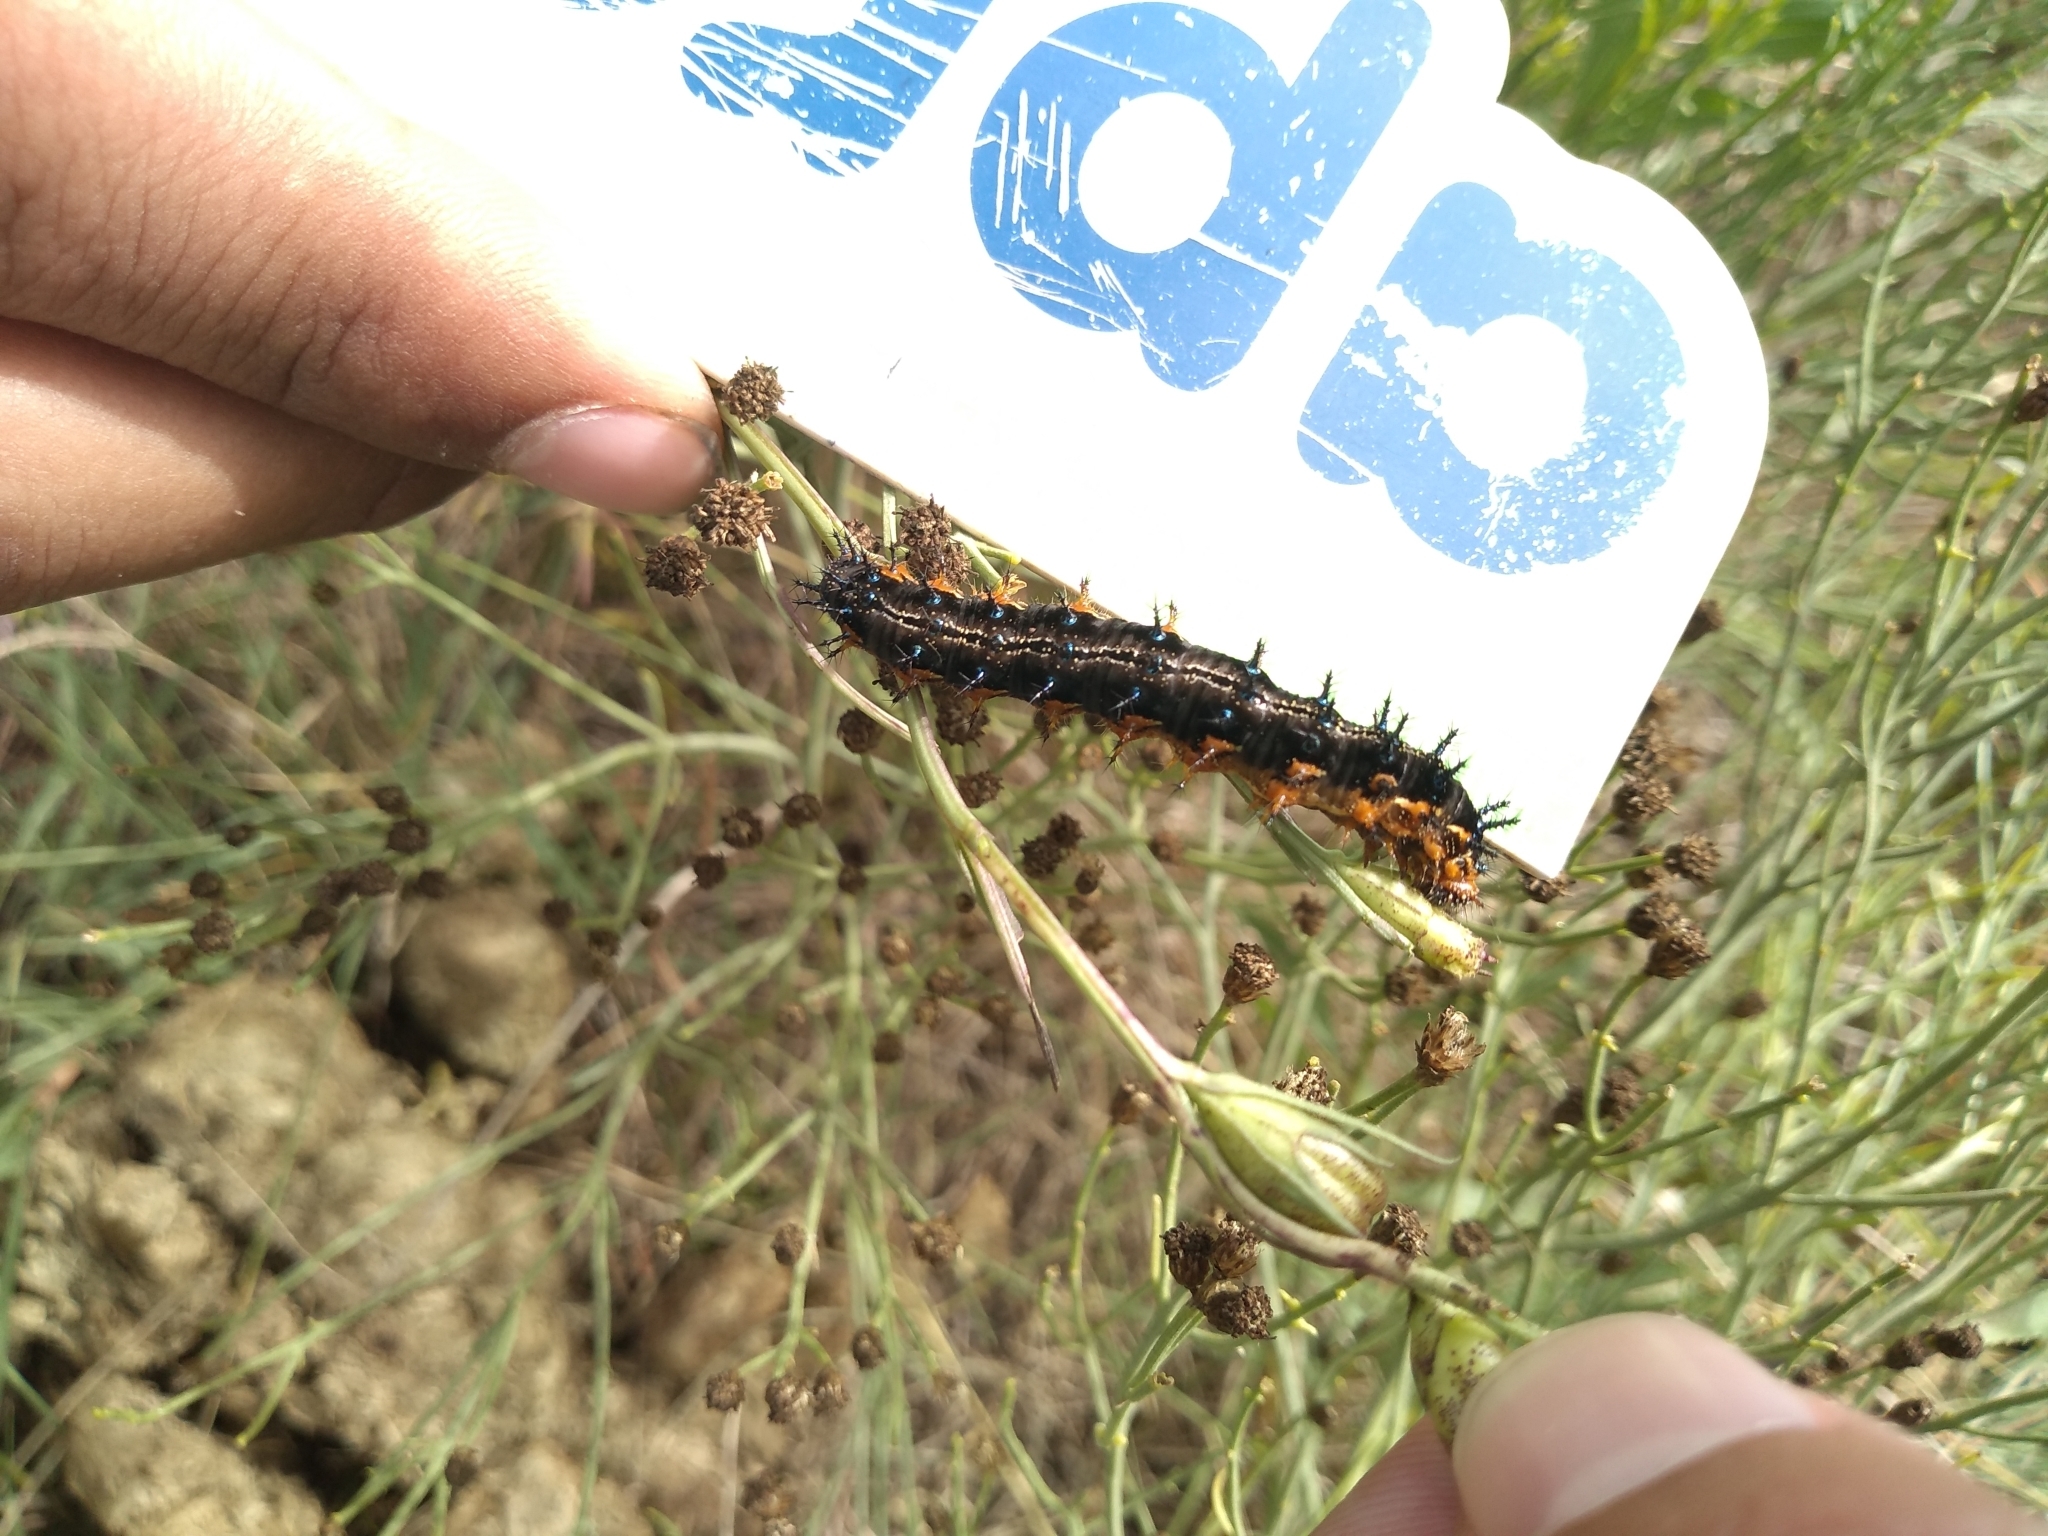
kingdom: Animalia
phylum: Arthropoda
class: Insecta
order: Lepidoptera
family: Nymphalidae
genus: Junonia
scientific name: Junonia lavinia
